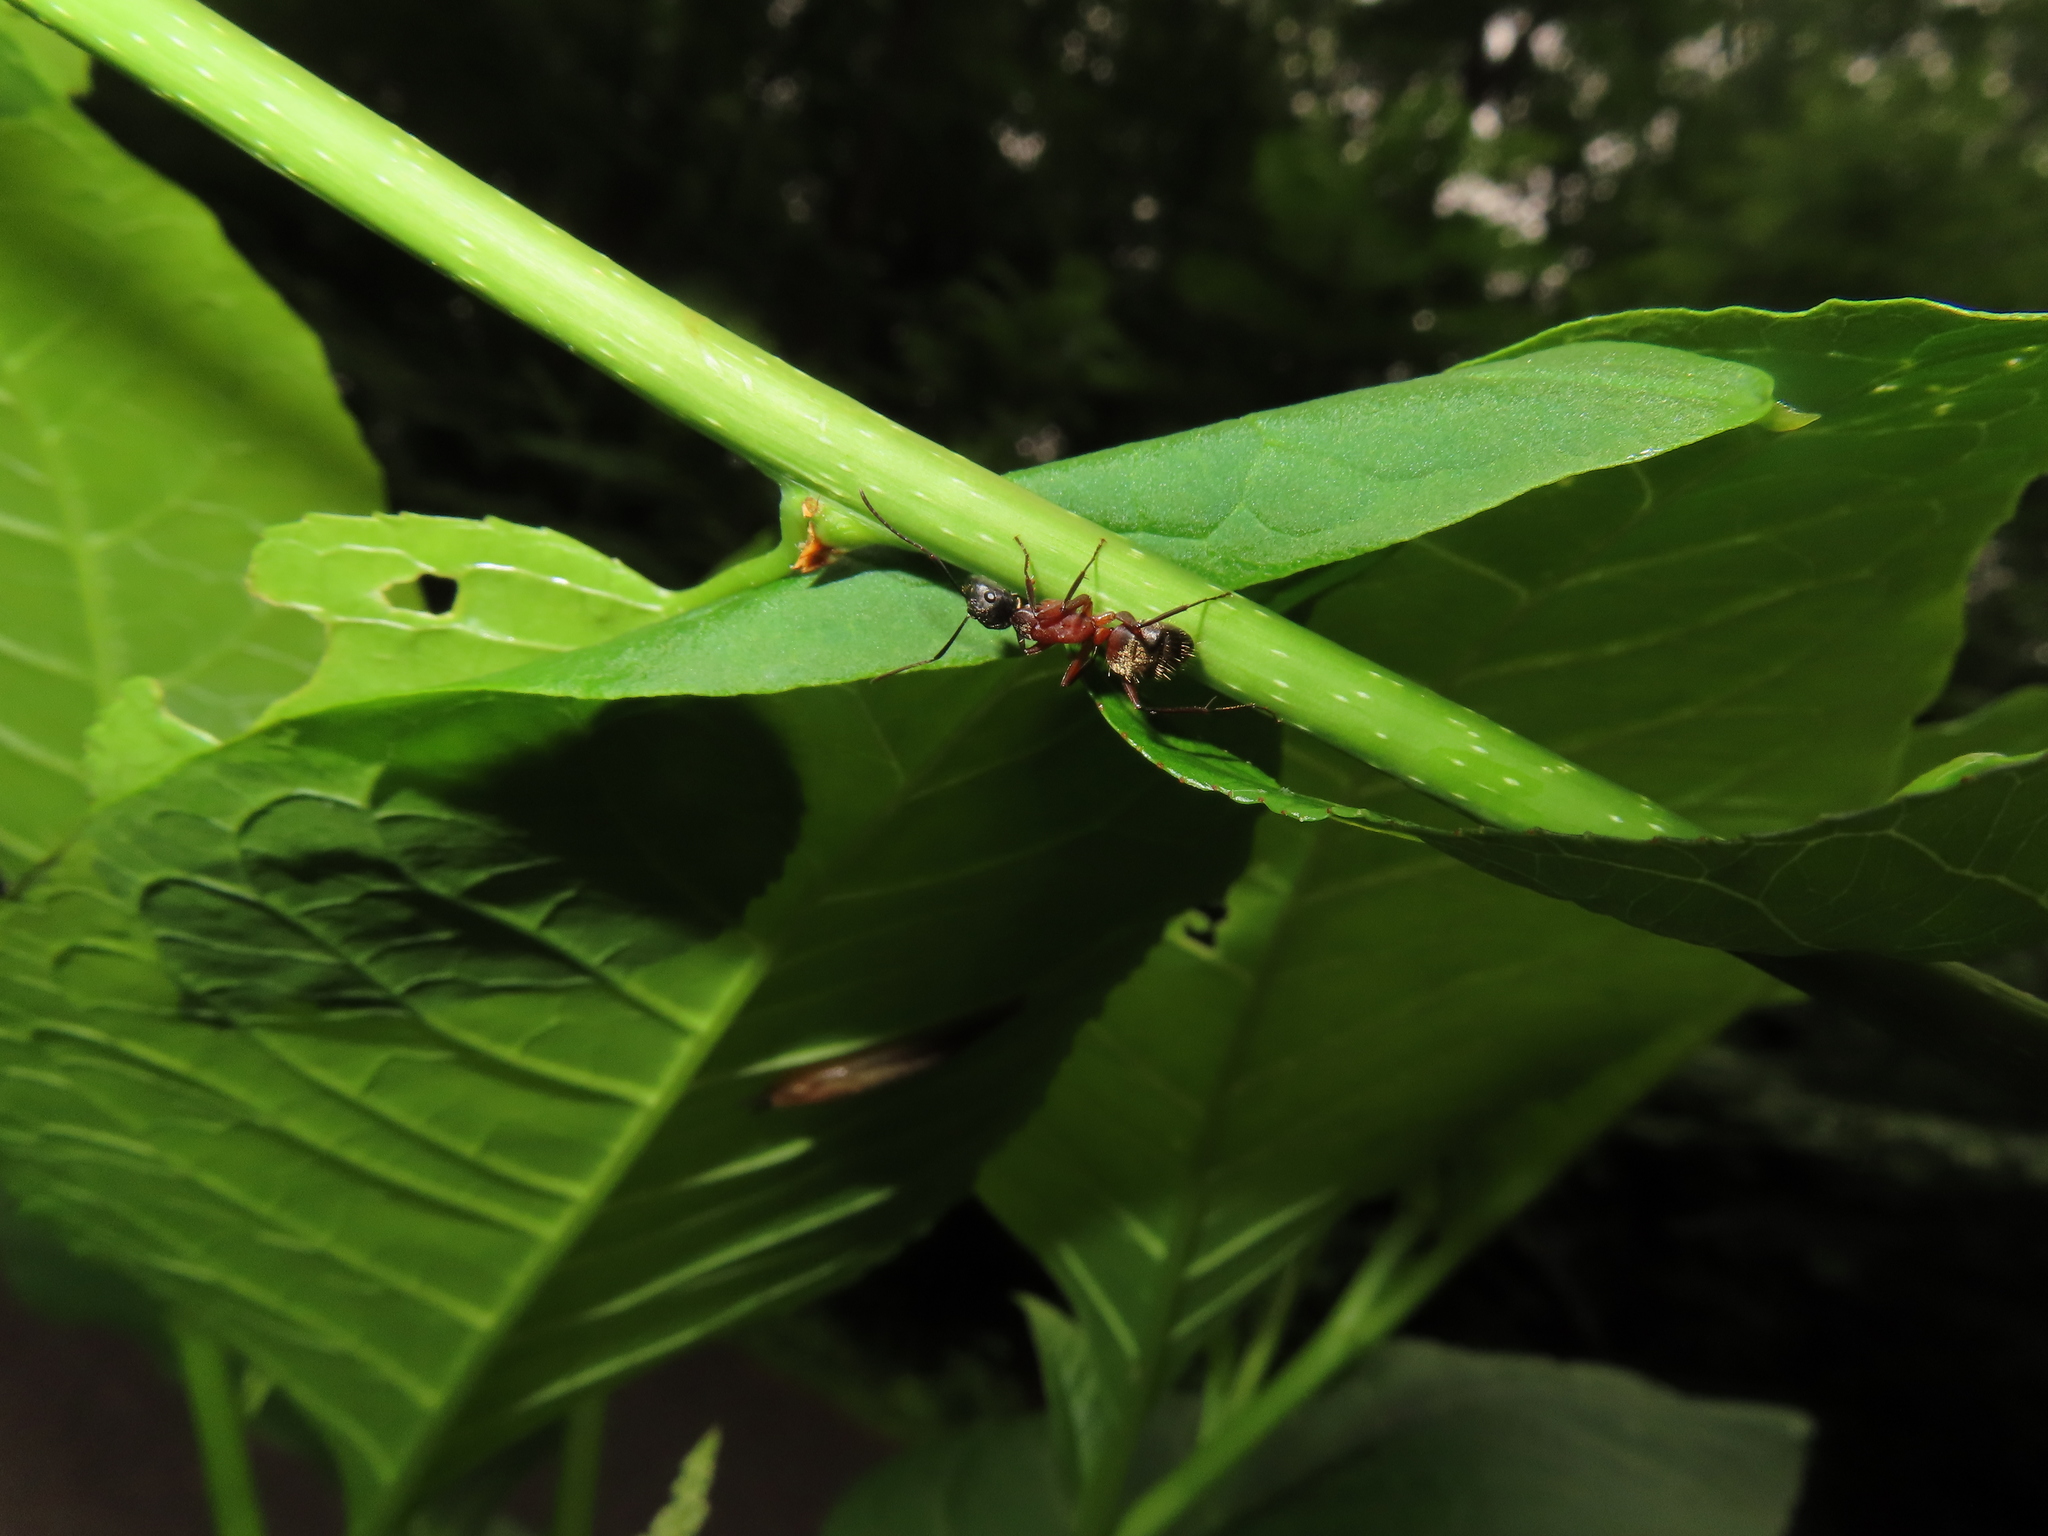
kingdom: Animalia
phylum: Arthropoda
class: Insecta
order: Hymenoptera
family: Formicidae
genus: Camponotus
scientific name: Camponotus chromaiodes
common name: Red carpenter ant
